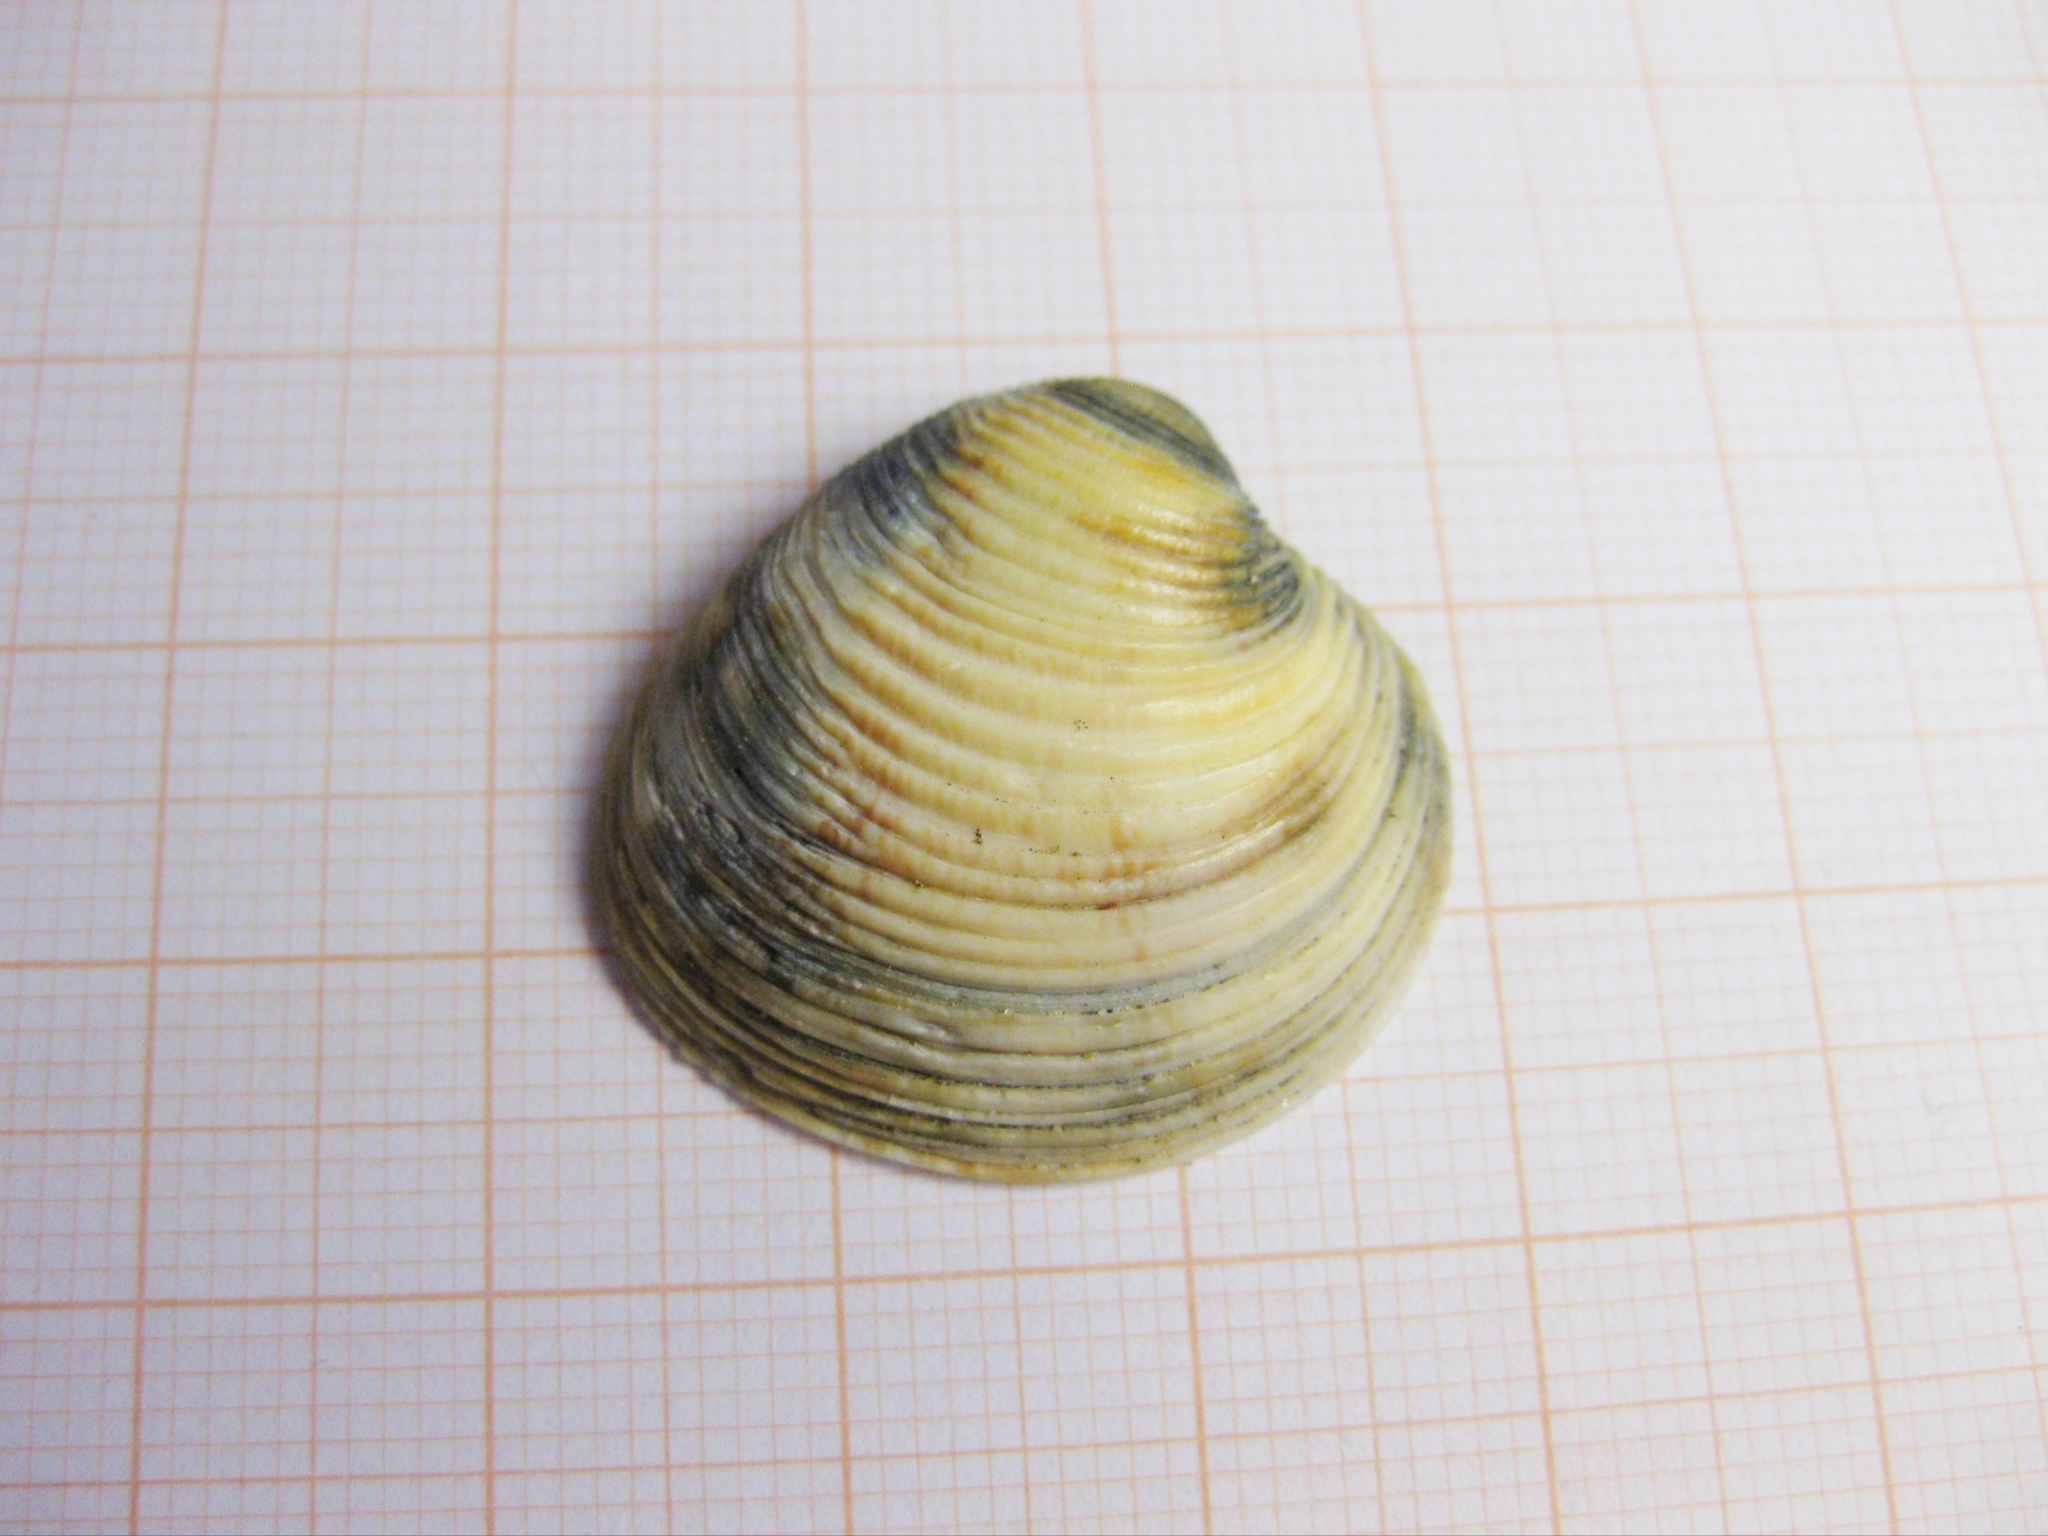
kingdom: Animalia
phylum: Mollusca
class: Bivalvia
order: Venerida
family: Veneridae
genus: Chamelea
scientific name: Chamelea gallina
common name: Chicken venus
